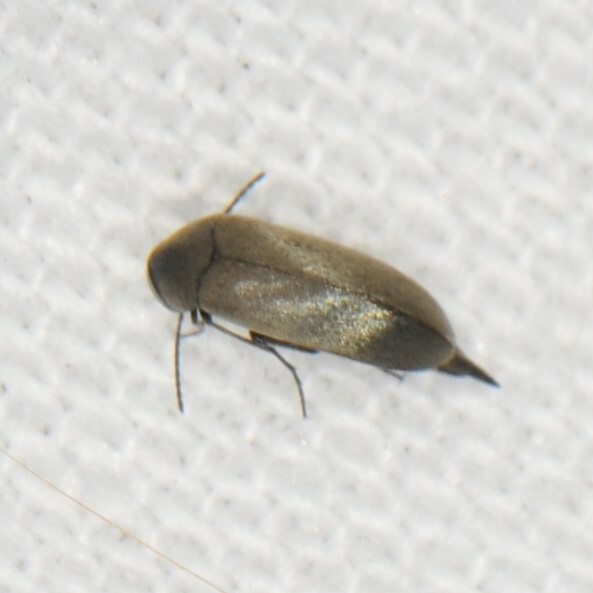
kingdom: Animalia
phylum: Arthropoda
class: Insecta
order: Coleoptera
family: Mordellidae
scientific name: Mordellidae
